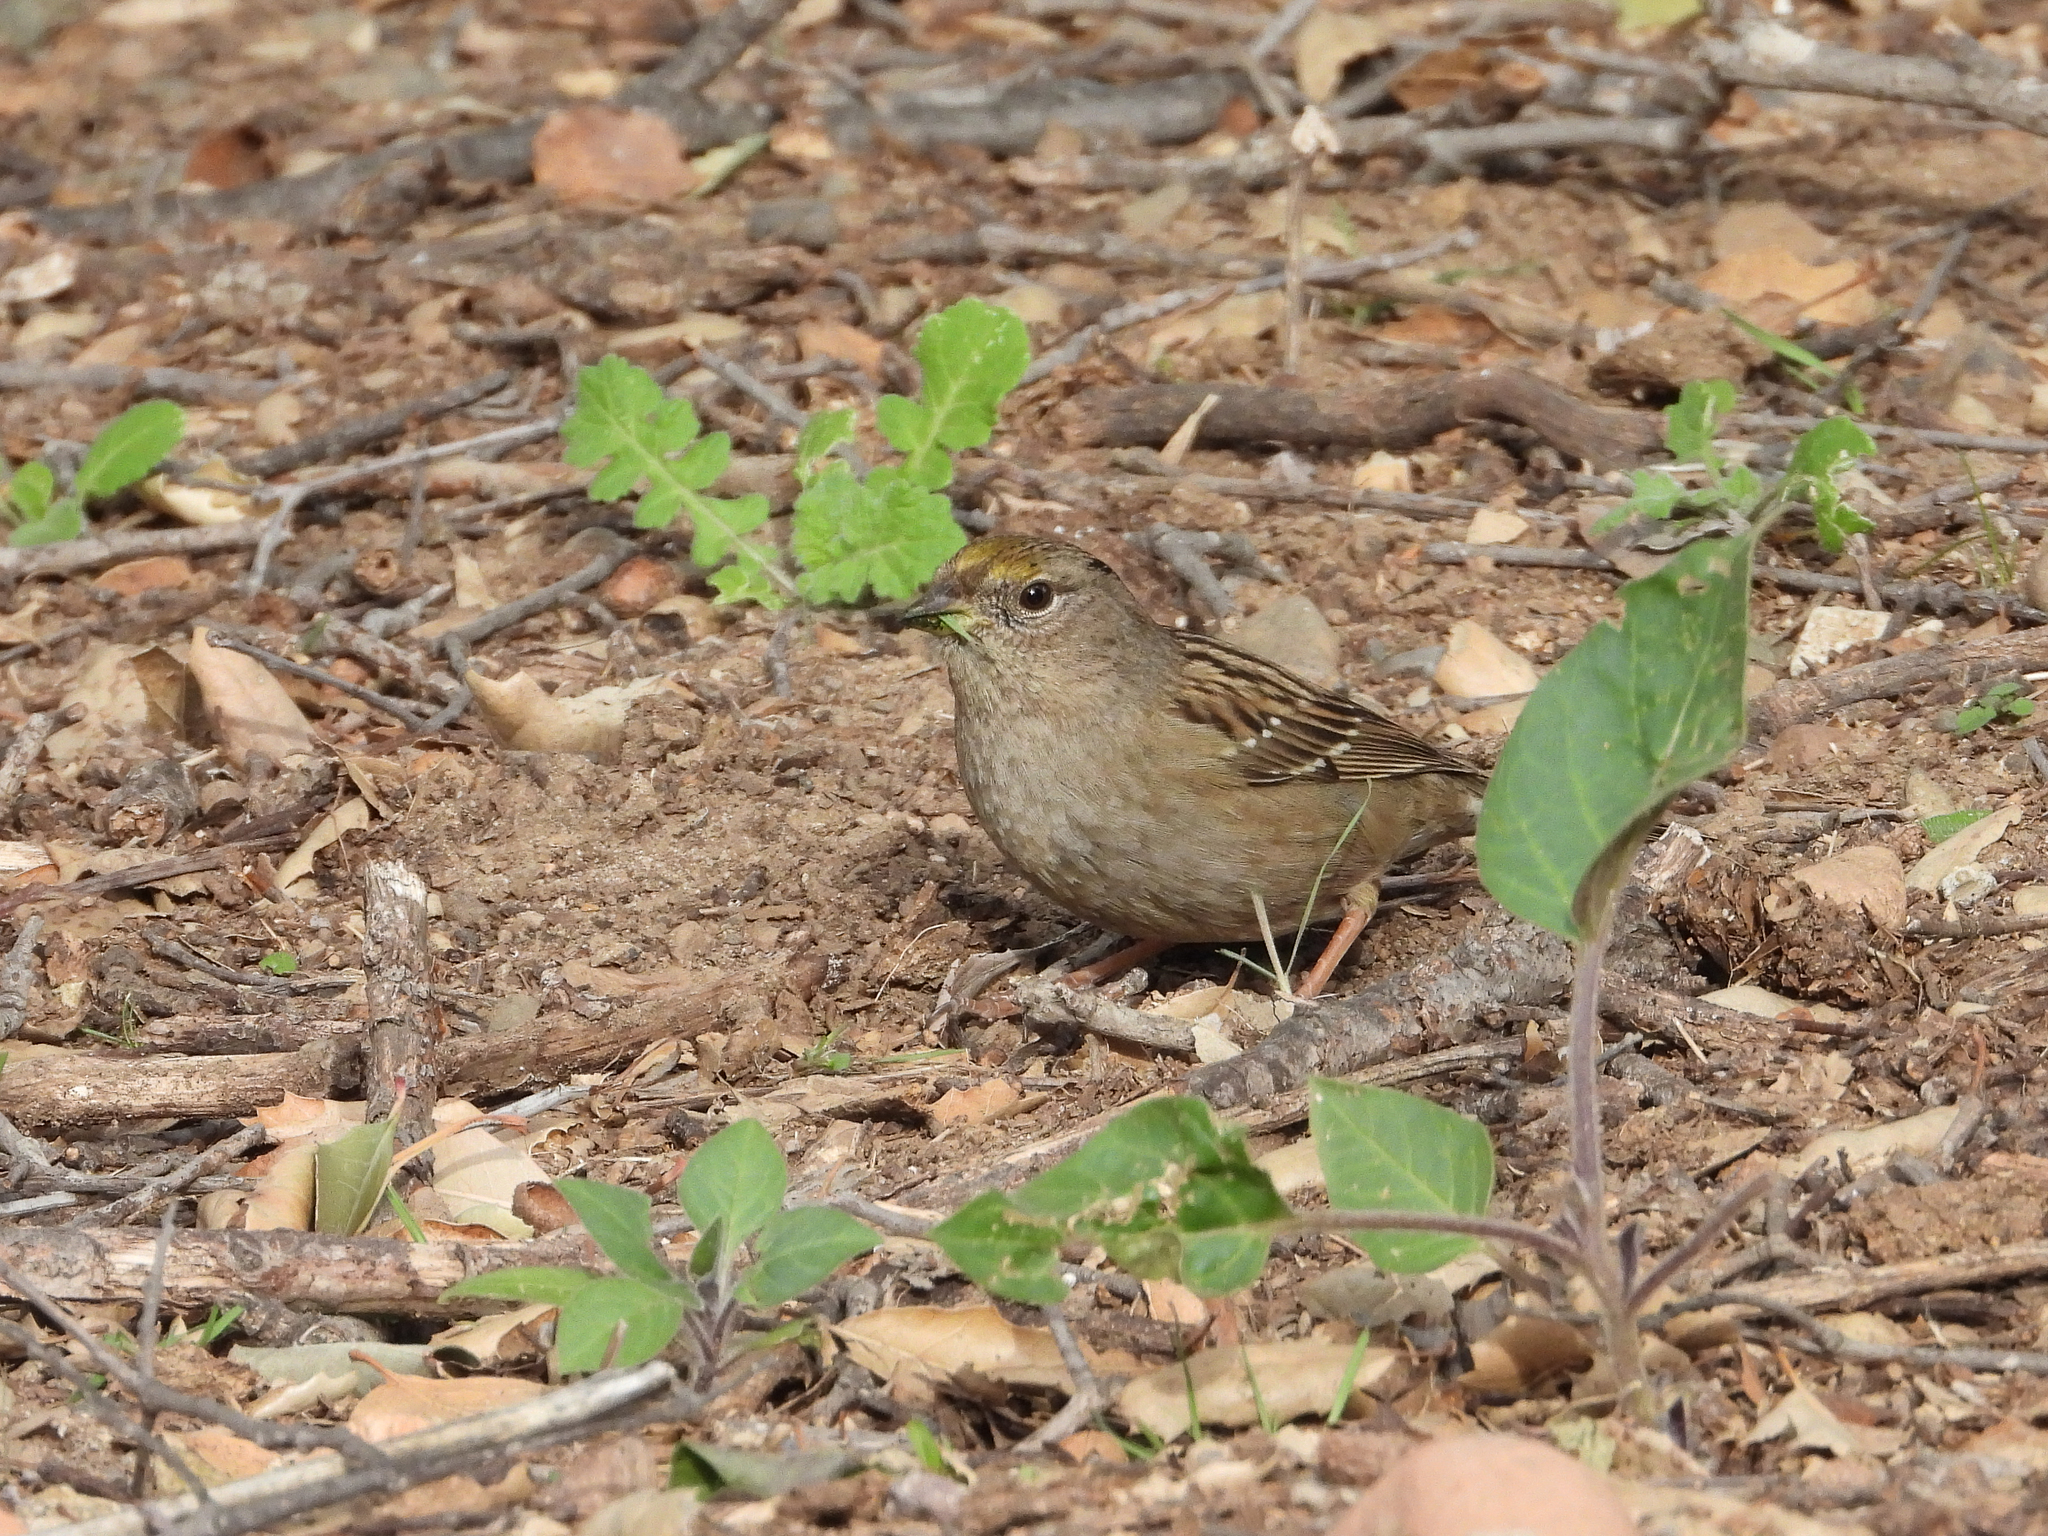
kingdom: Animalia
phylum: Chordata
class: Aves
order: Passeriformes
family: Passerellidae
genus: Zonotrichia
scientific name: Zonotrichia atricapilla
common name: Golden-crowned sparrow
